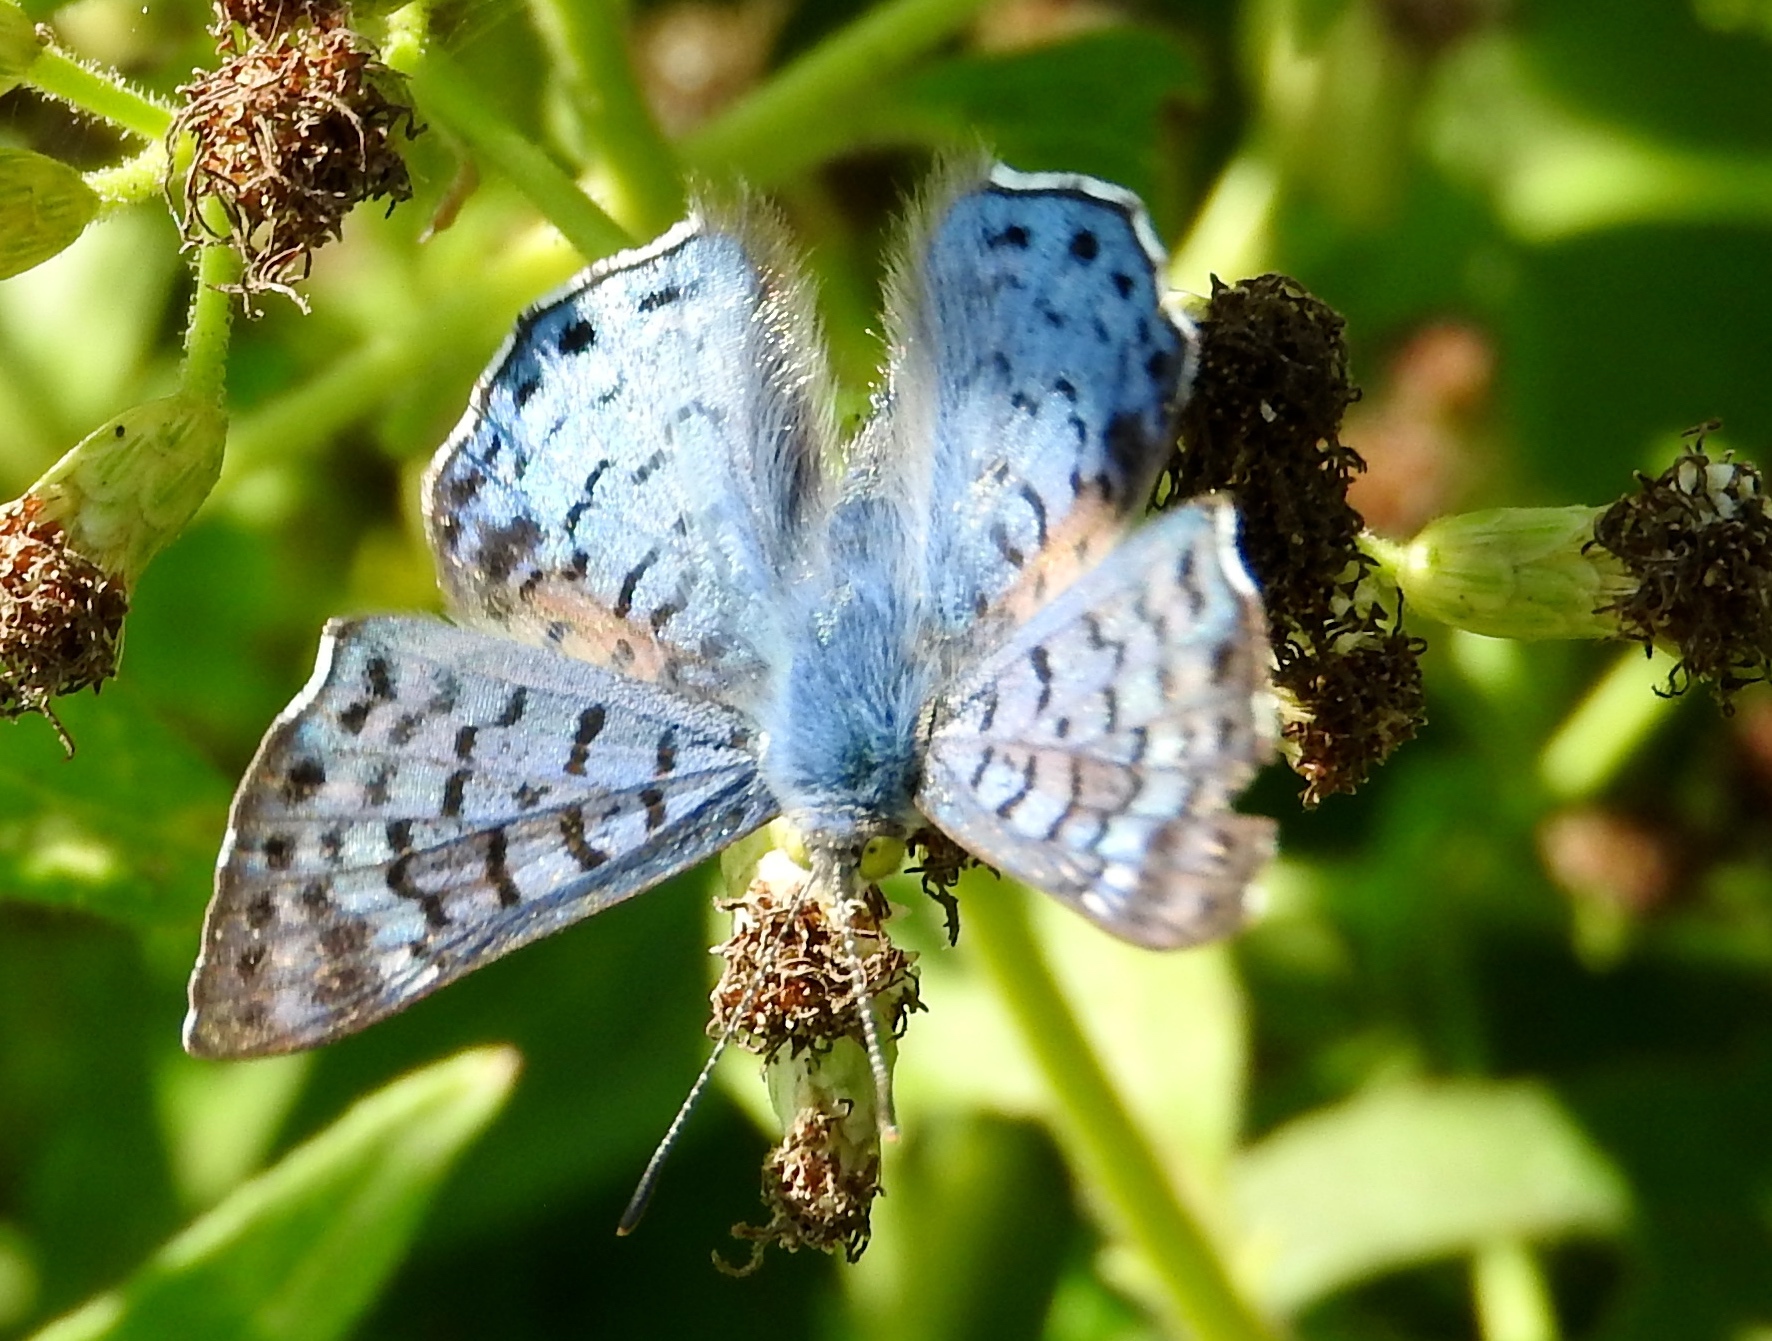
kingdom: Animalia
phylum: Arthropoda
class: Insecta
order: Lepidoptera
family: Riodinidae
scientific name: Riodinidae
